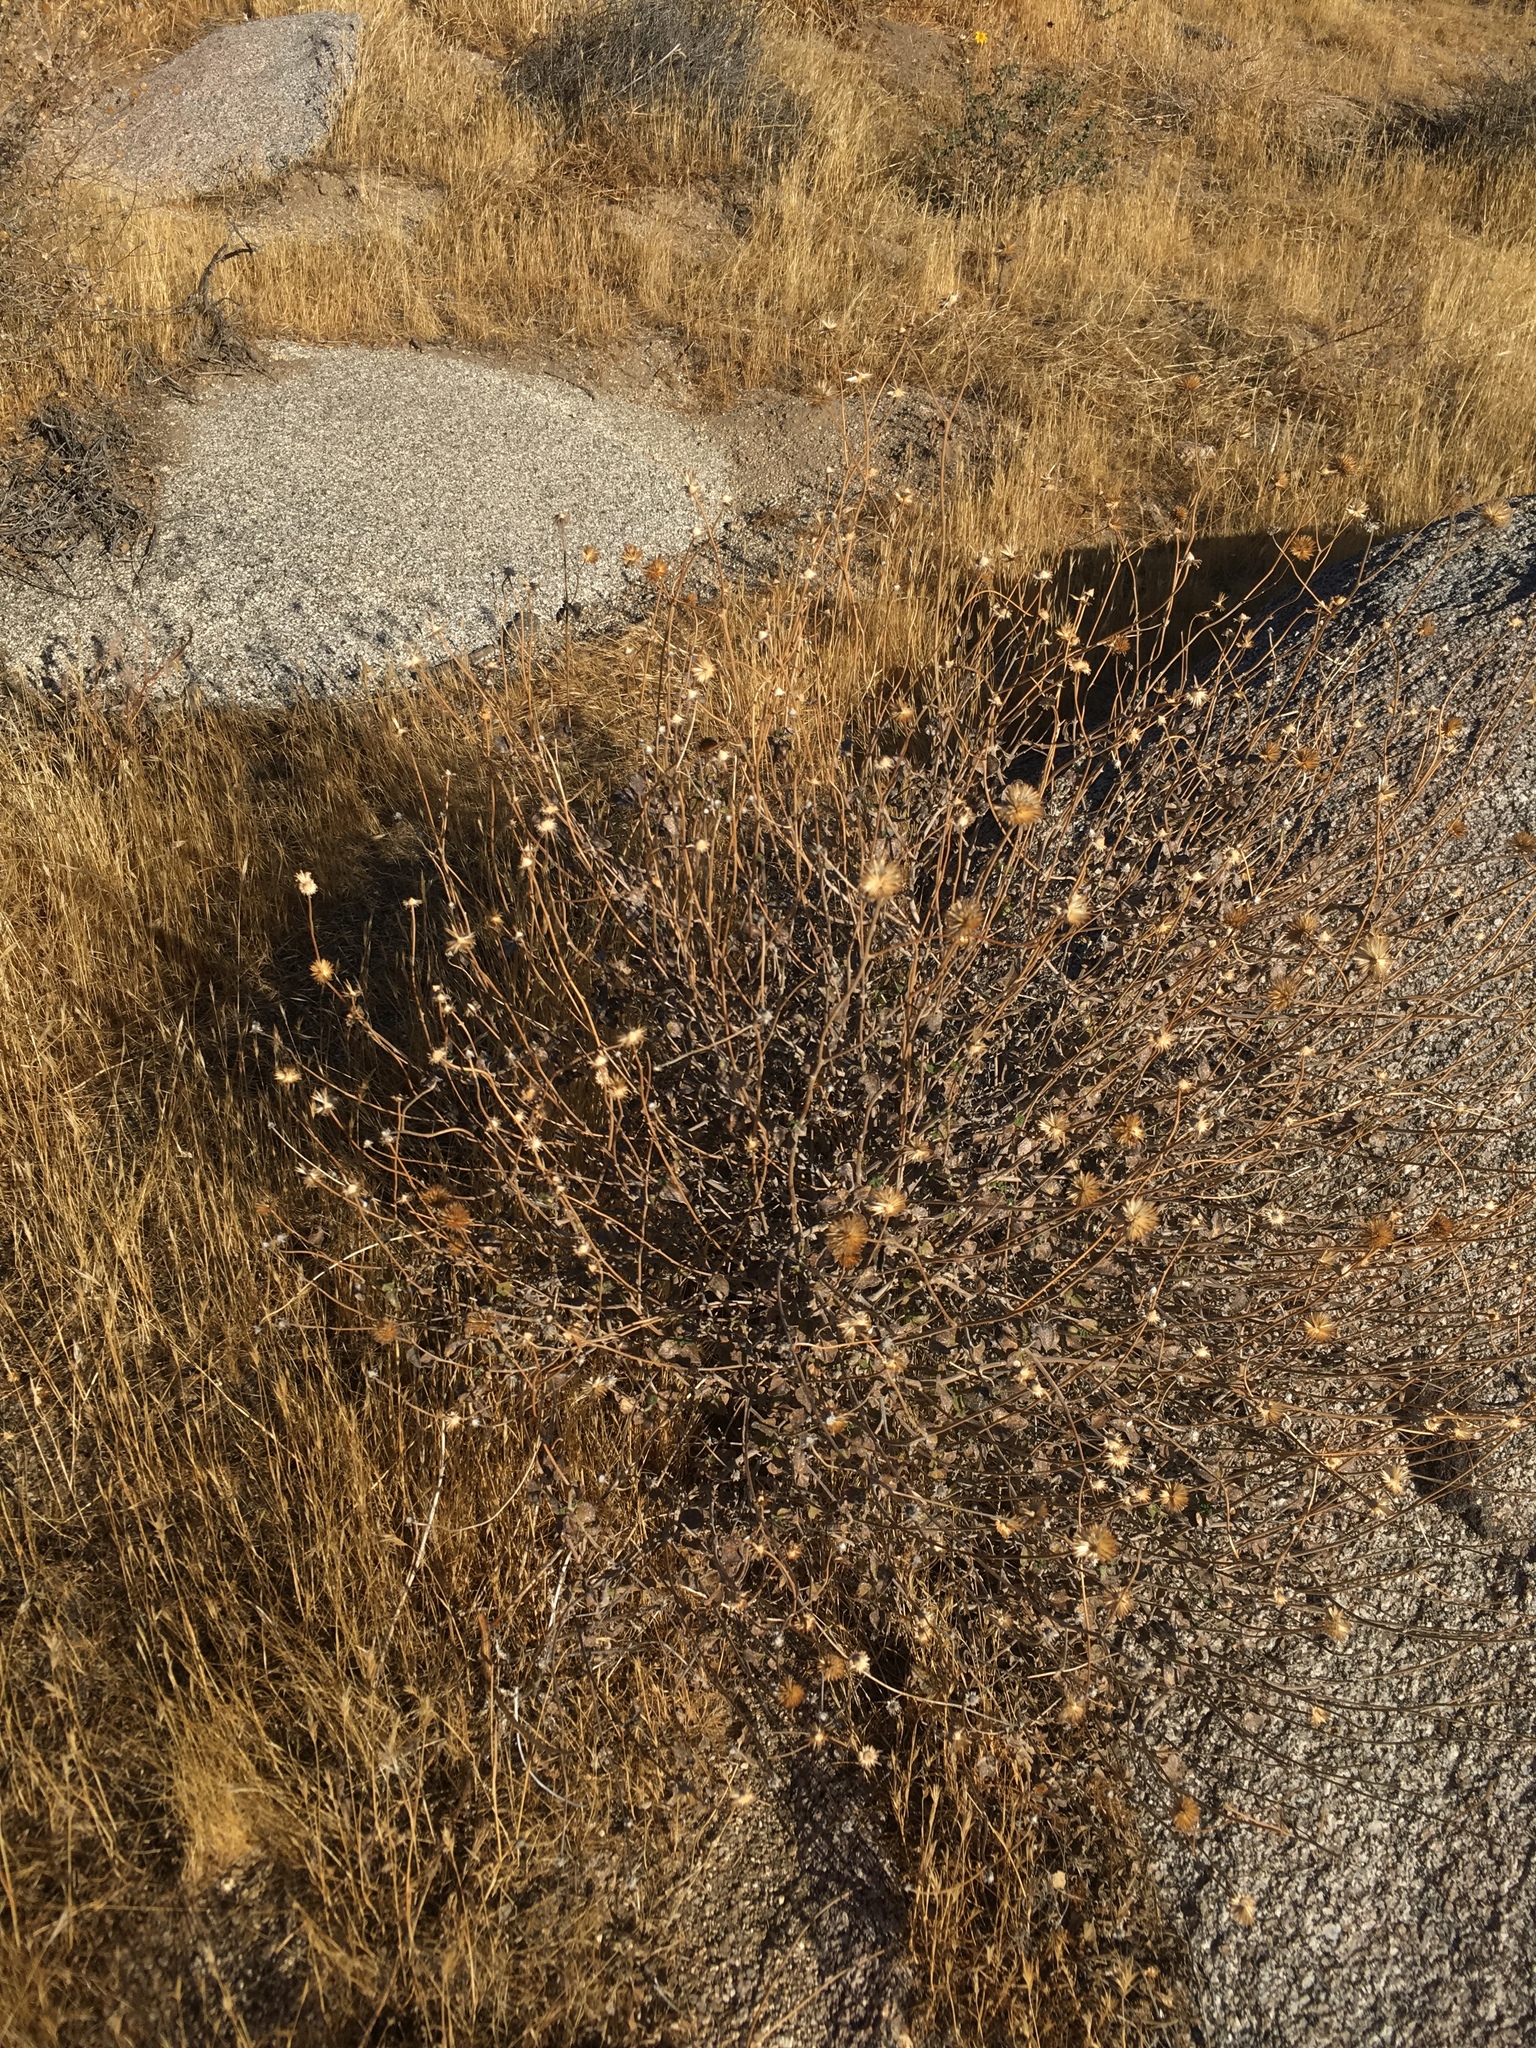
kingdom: Plantae
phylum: Tracheophyta
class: Magnoliopsida
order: Asterales
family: Asteraceae
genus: Bahiopsis
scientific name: Bahiopsis parishii
